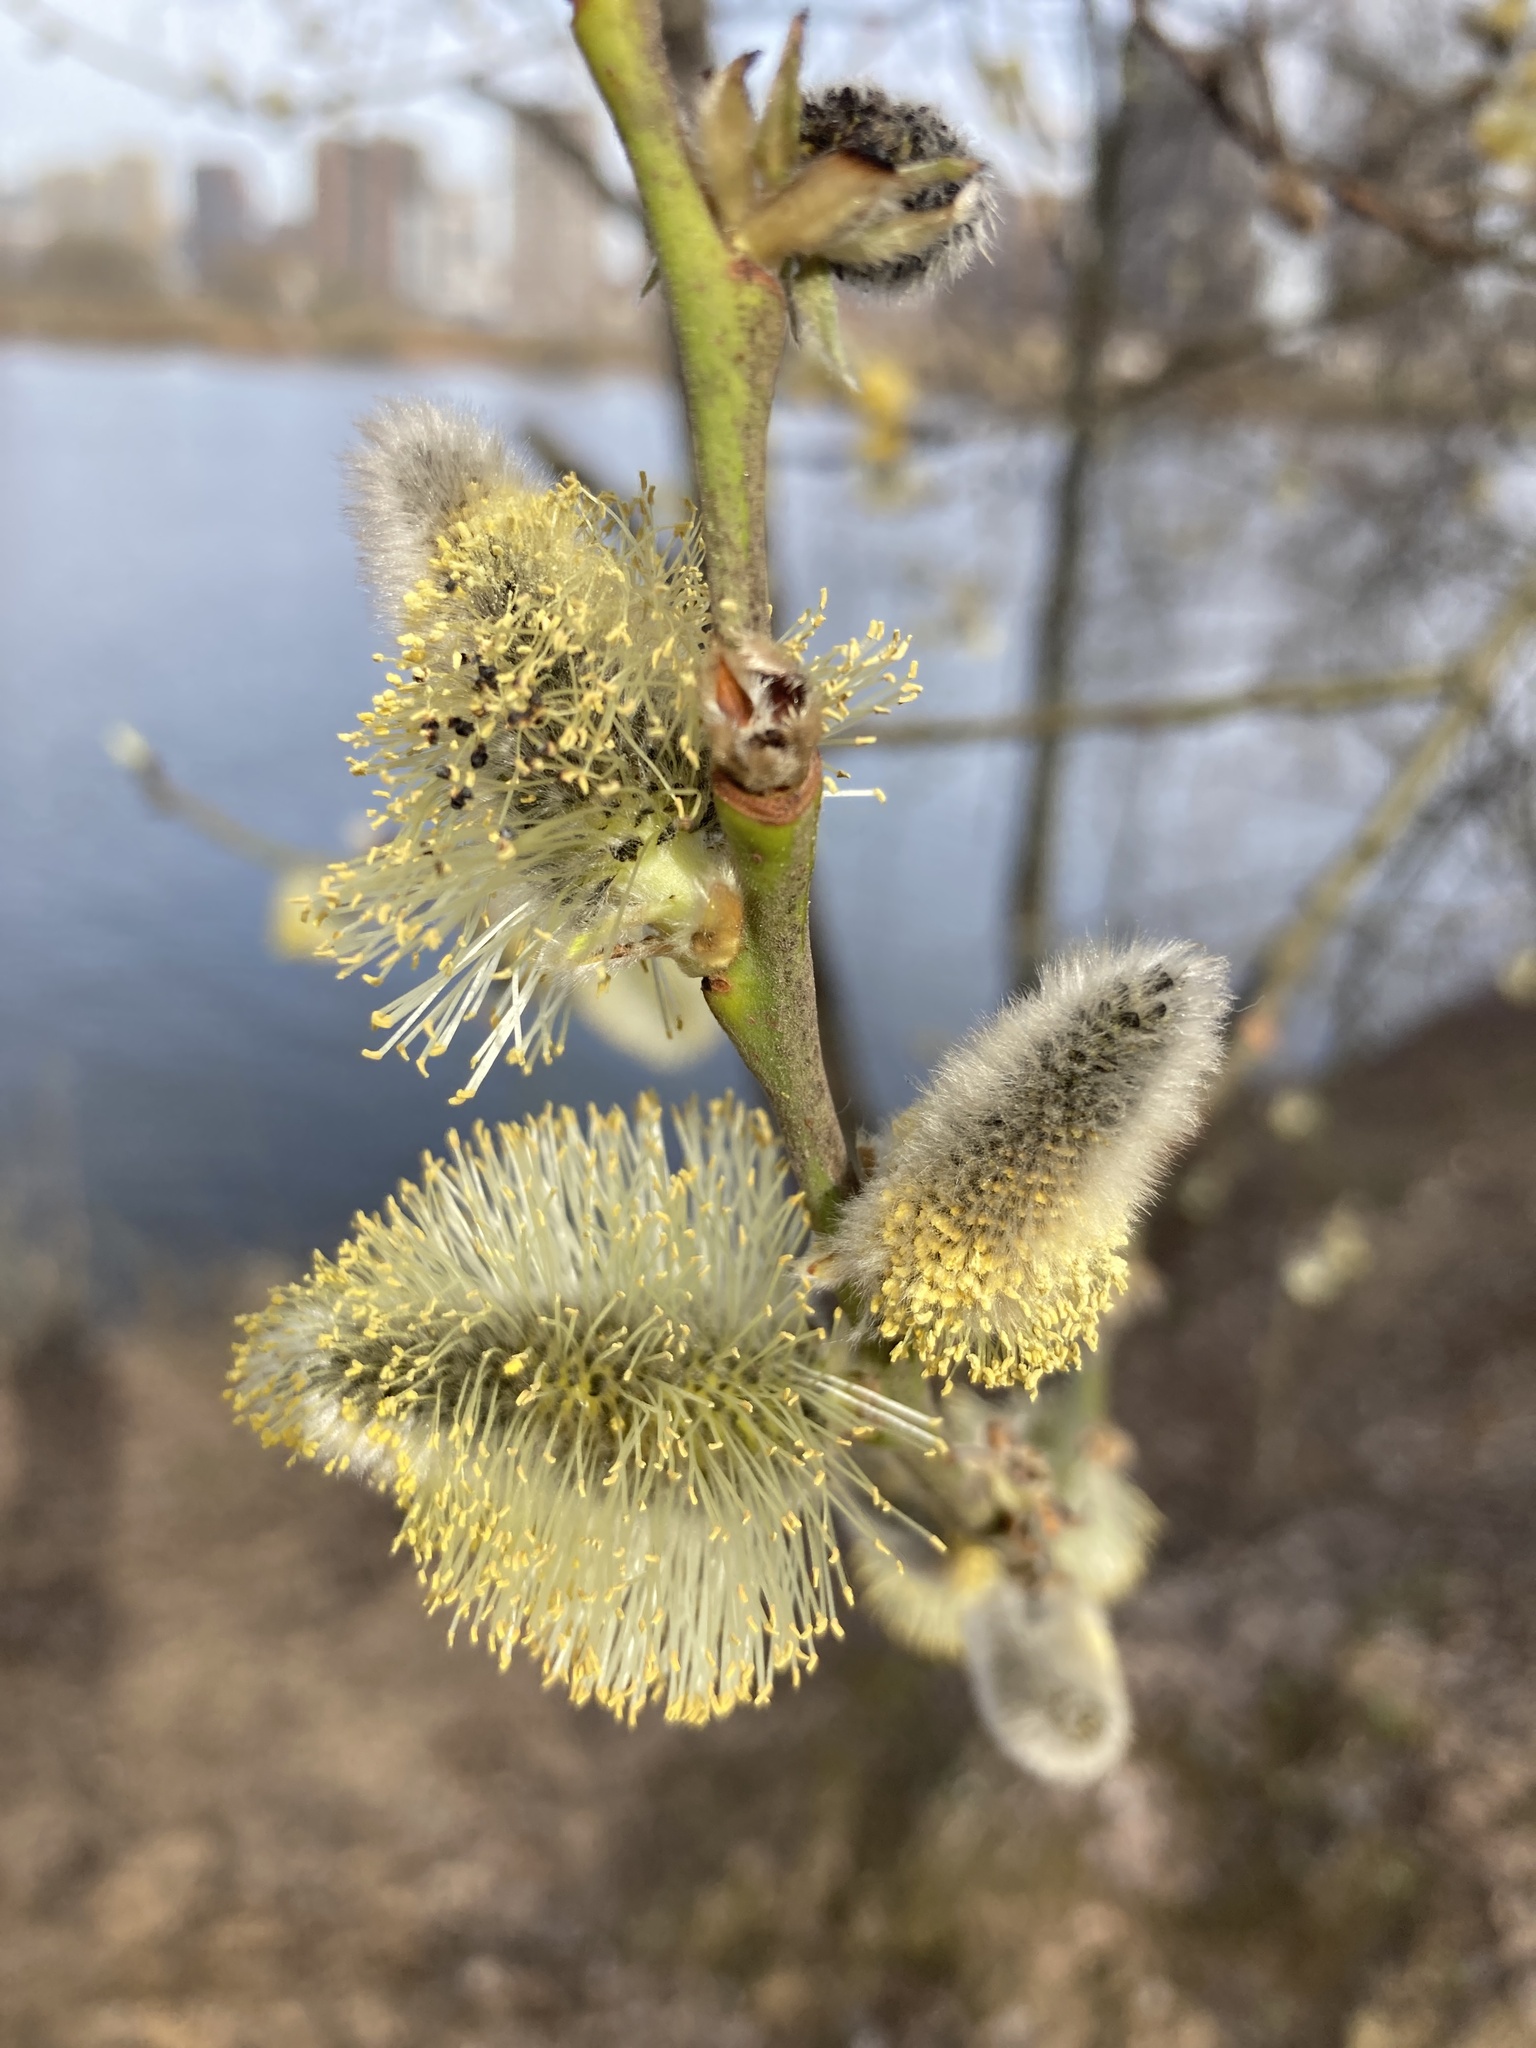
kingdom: Plantae
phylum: Tracheophyta
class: Magnoliopsida
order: Malpighiales
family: Salicaceae
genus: Salix
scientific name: Salix caprea
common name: Goat willow
